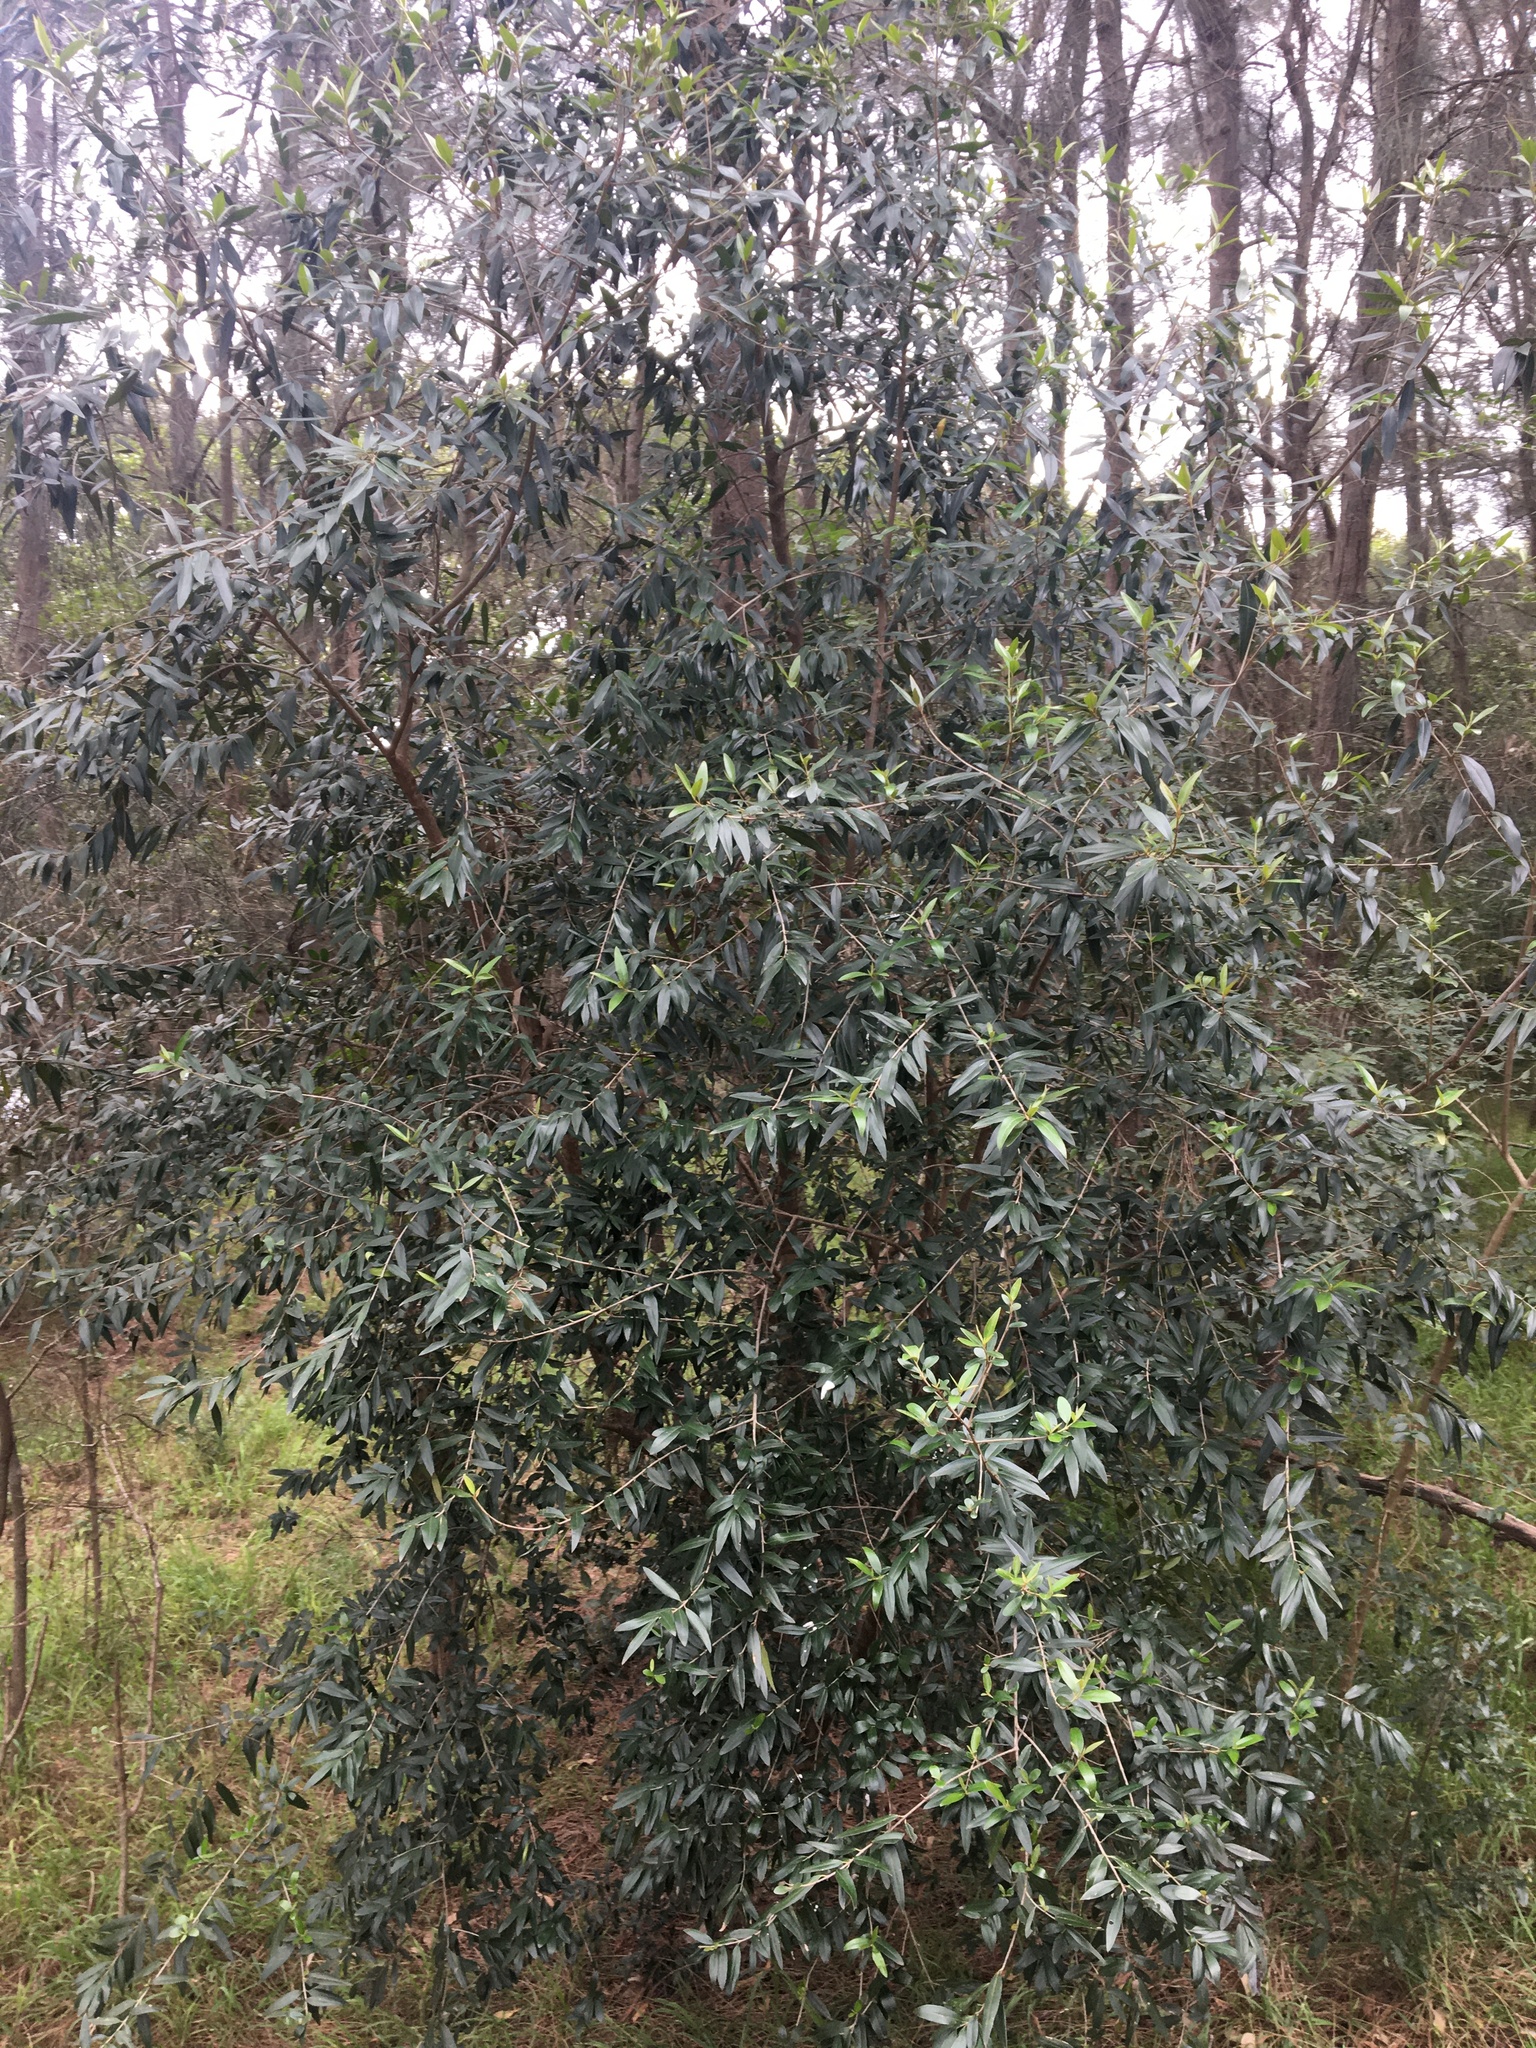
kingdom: Plantae
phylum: Tracheophyta
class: Magnoliopsida
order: Lamiales
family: Oleaceae
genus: Olea
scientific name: Olea europaea
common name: Olive
